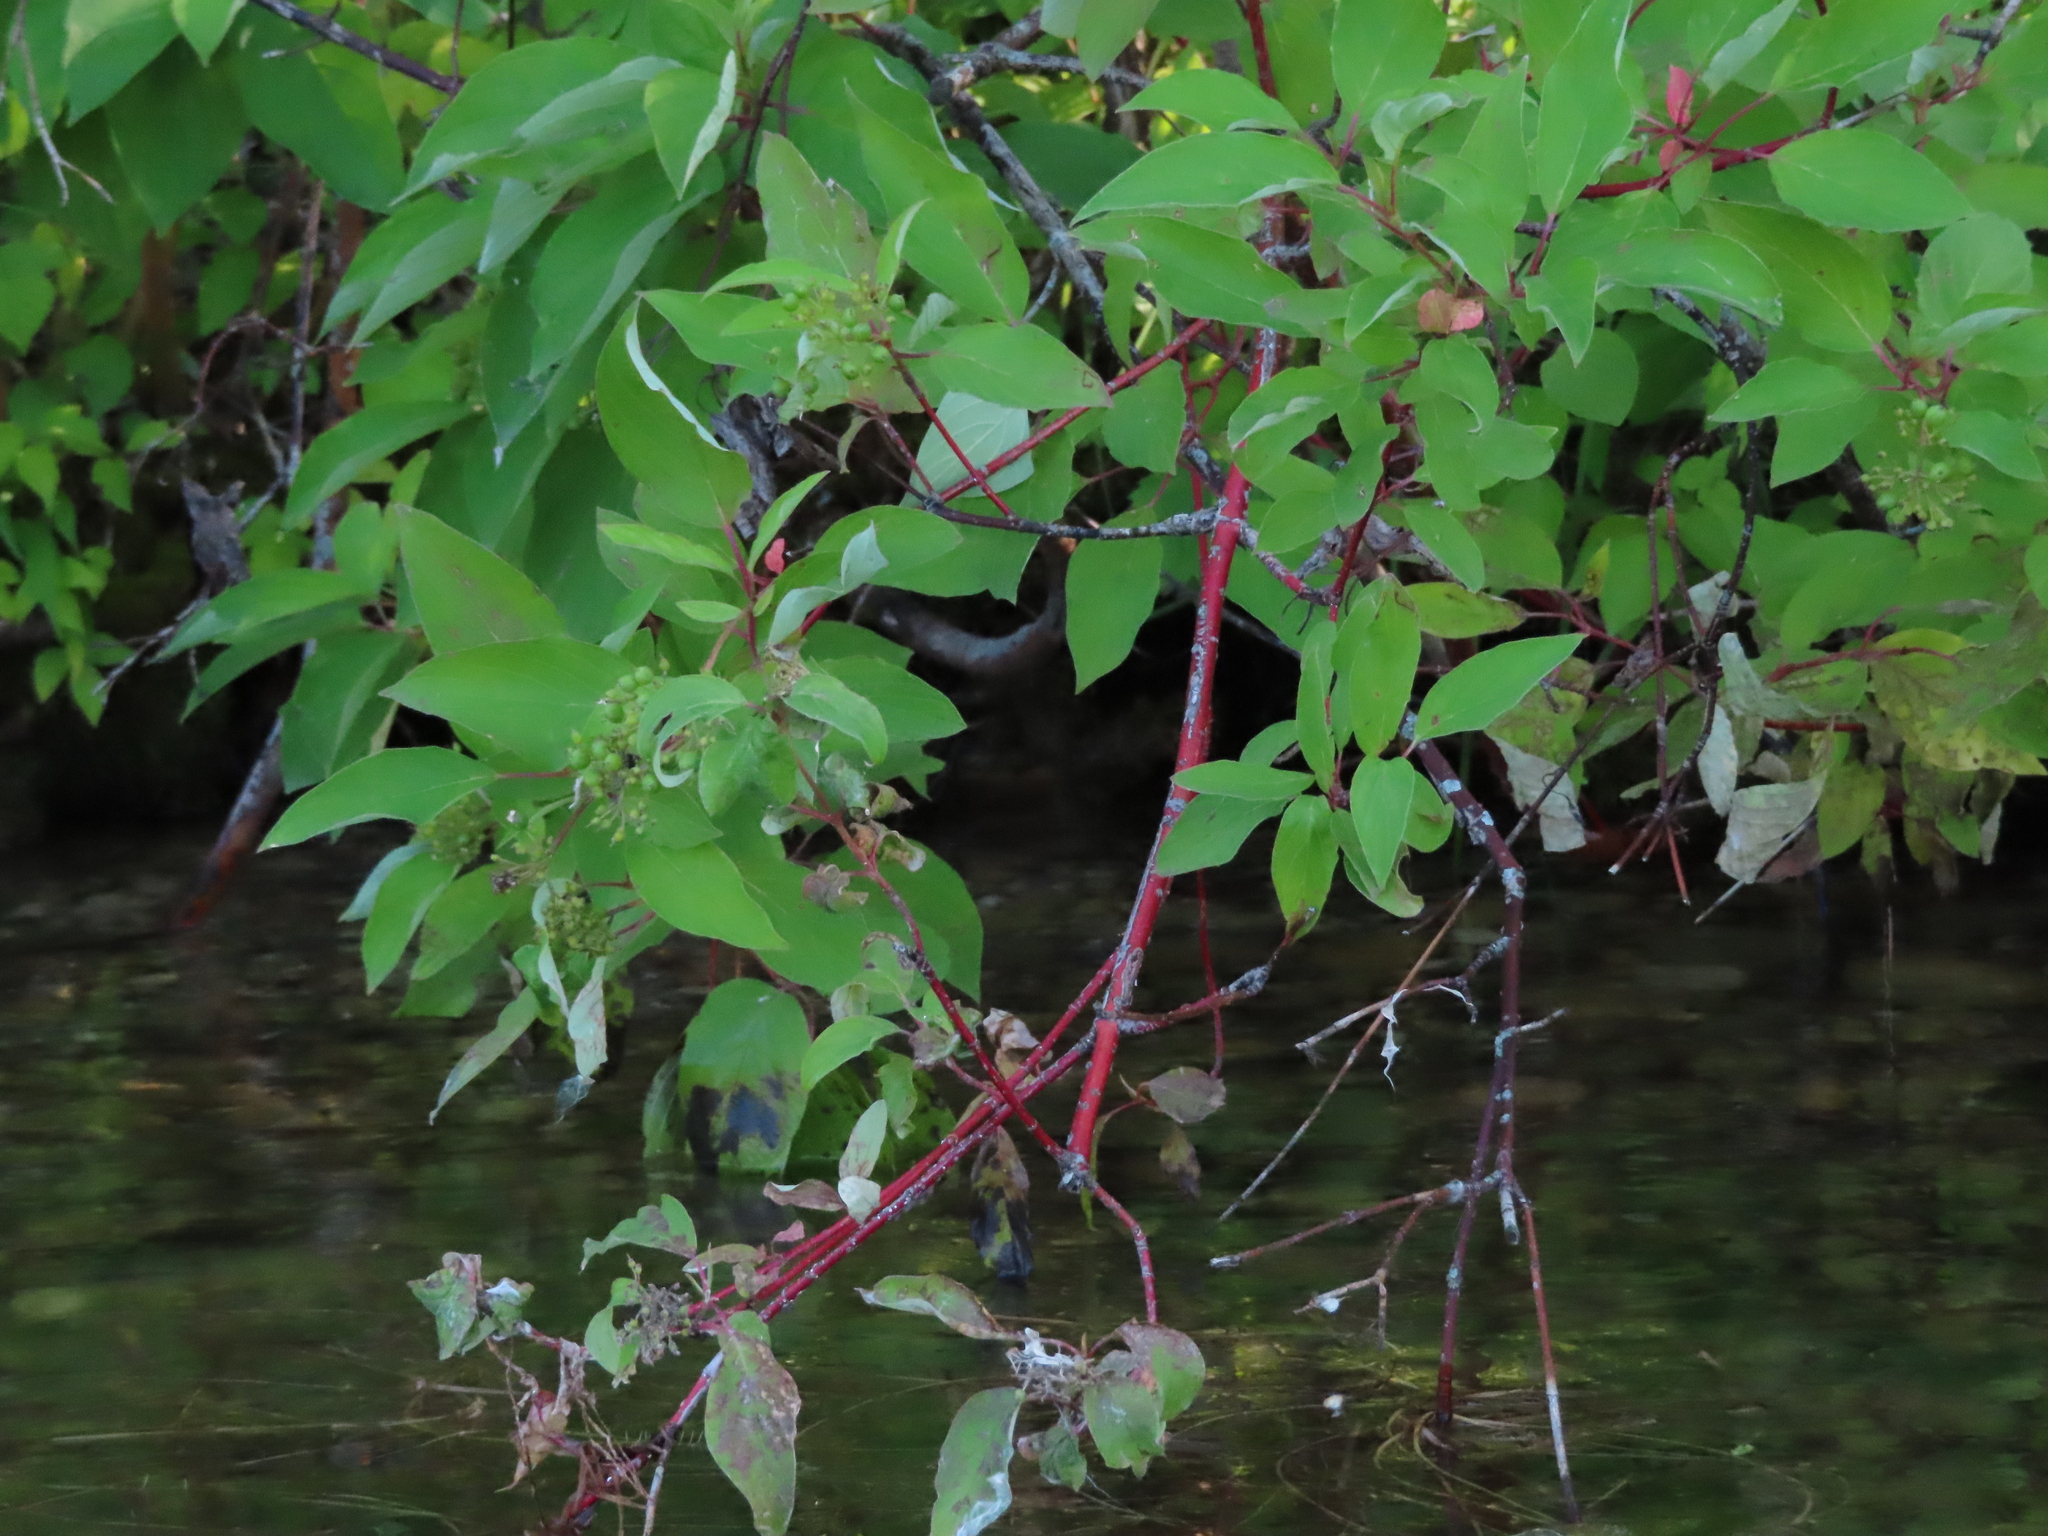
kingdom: Plantae
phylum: Tracheophyta
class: Magnoliopsida
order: Cornales
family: Cornaceae
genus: Cornus
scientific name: Cornus sericea
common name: Red-osier dogwood
